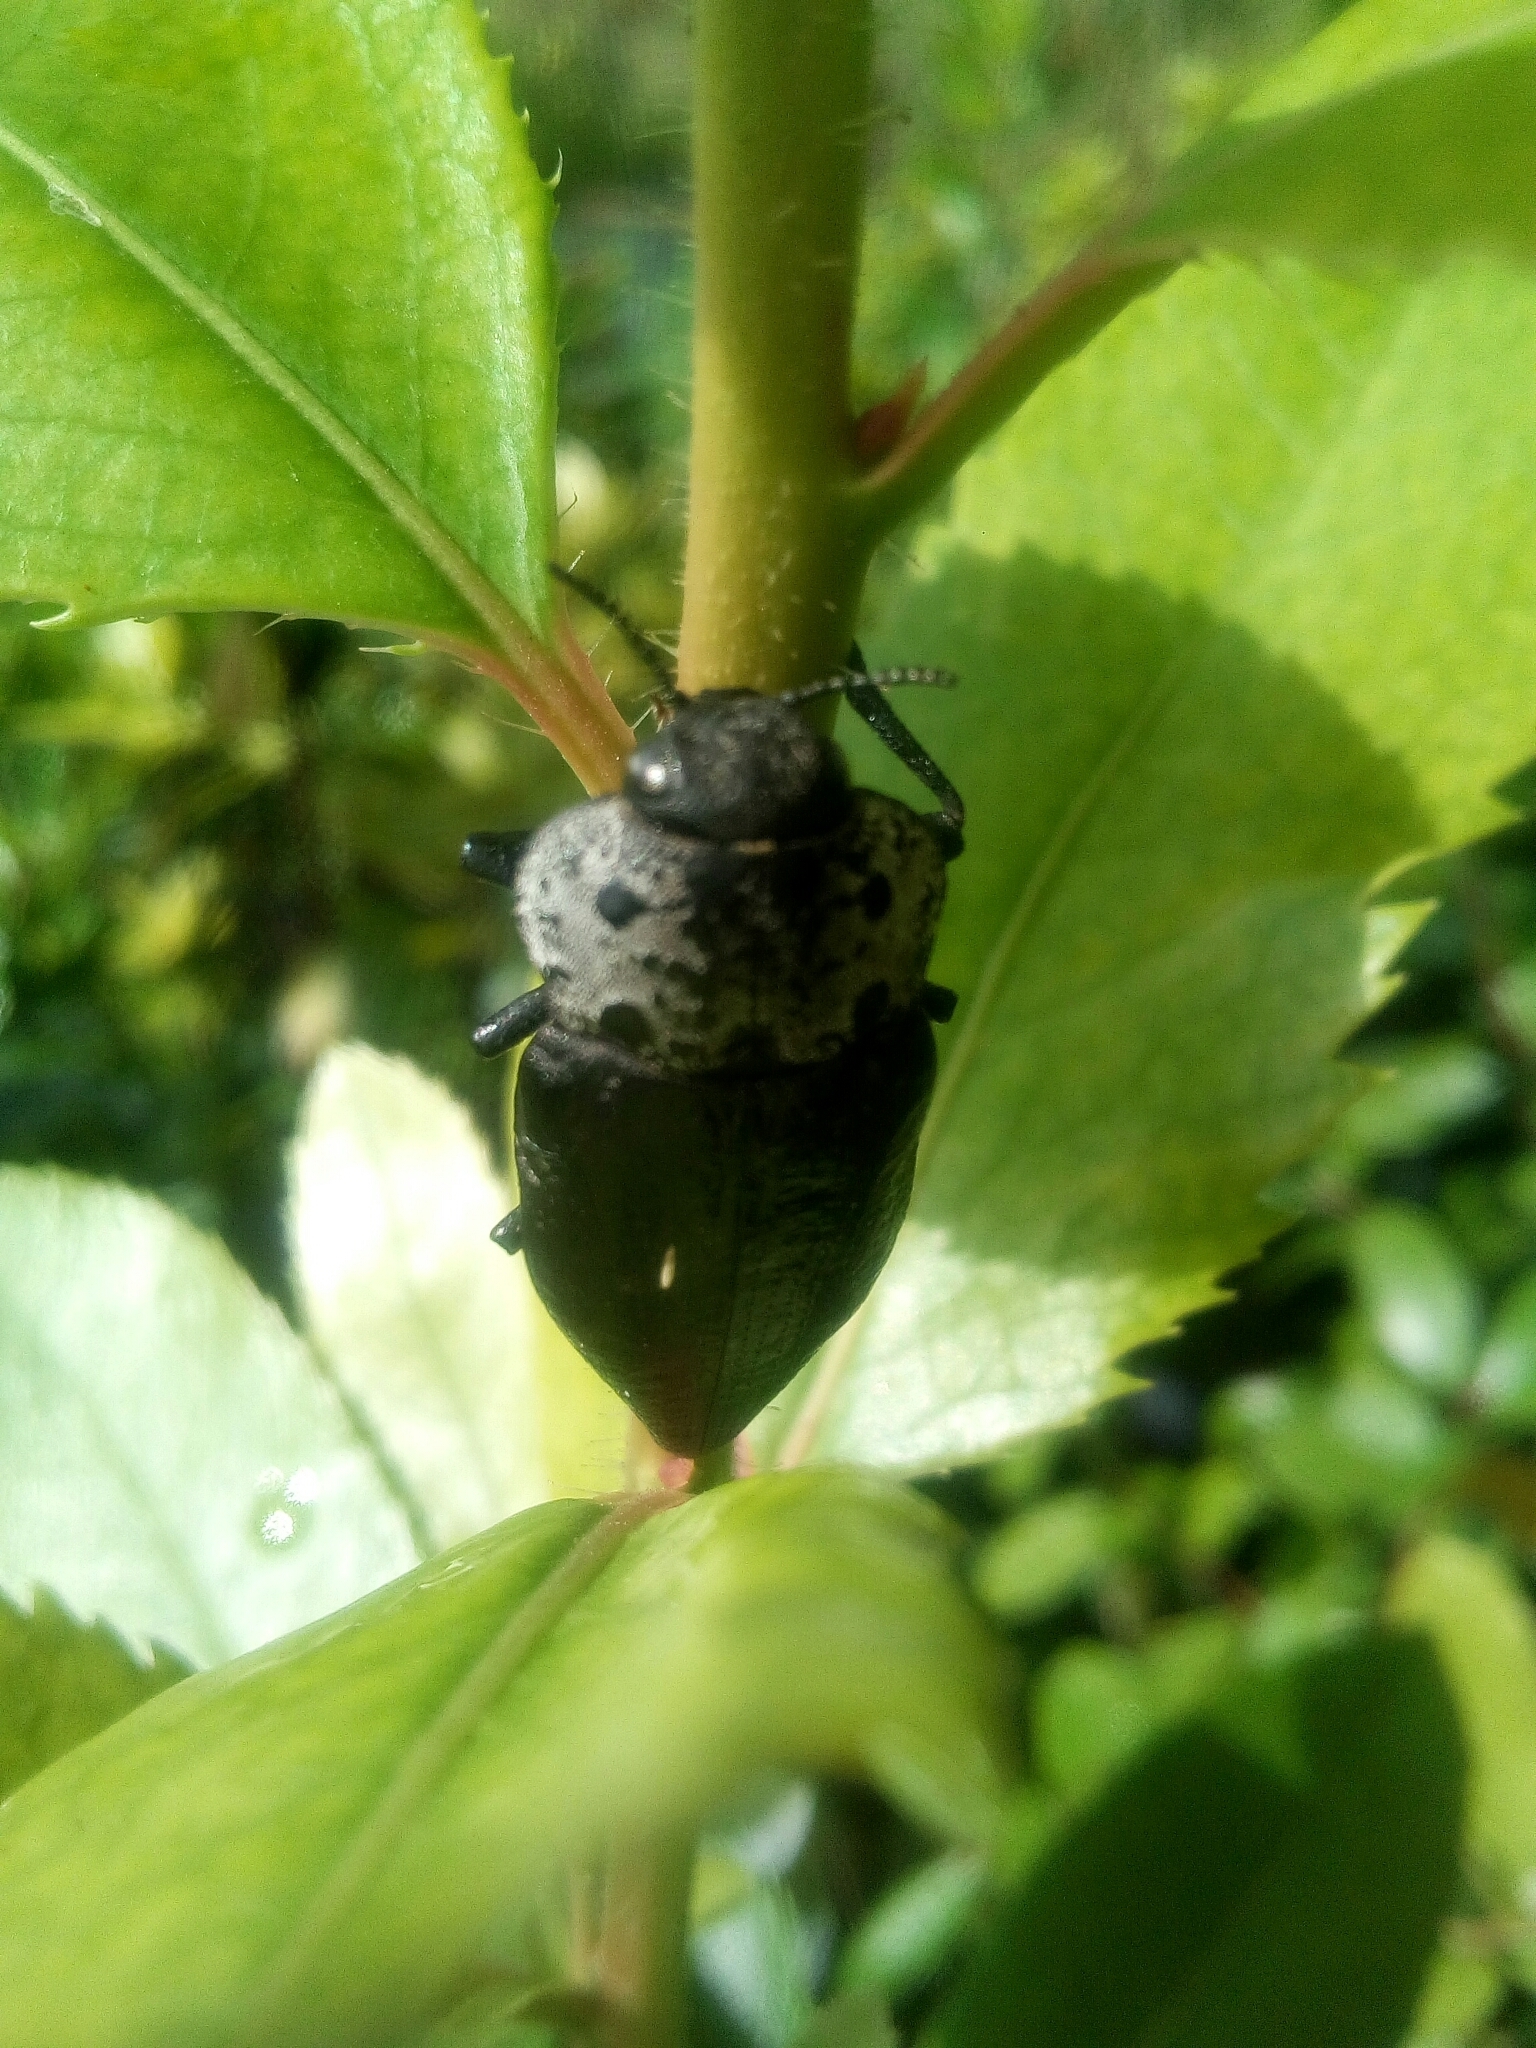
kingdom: Animalia
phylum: Arthropoda
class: Insecta
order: Coleoptera
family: Buprestidae
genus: Capnodis
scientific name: Capnodis tenebrionis
